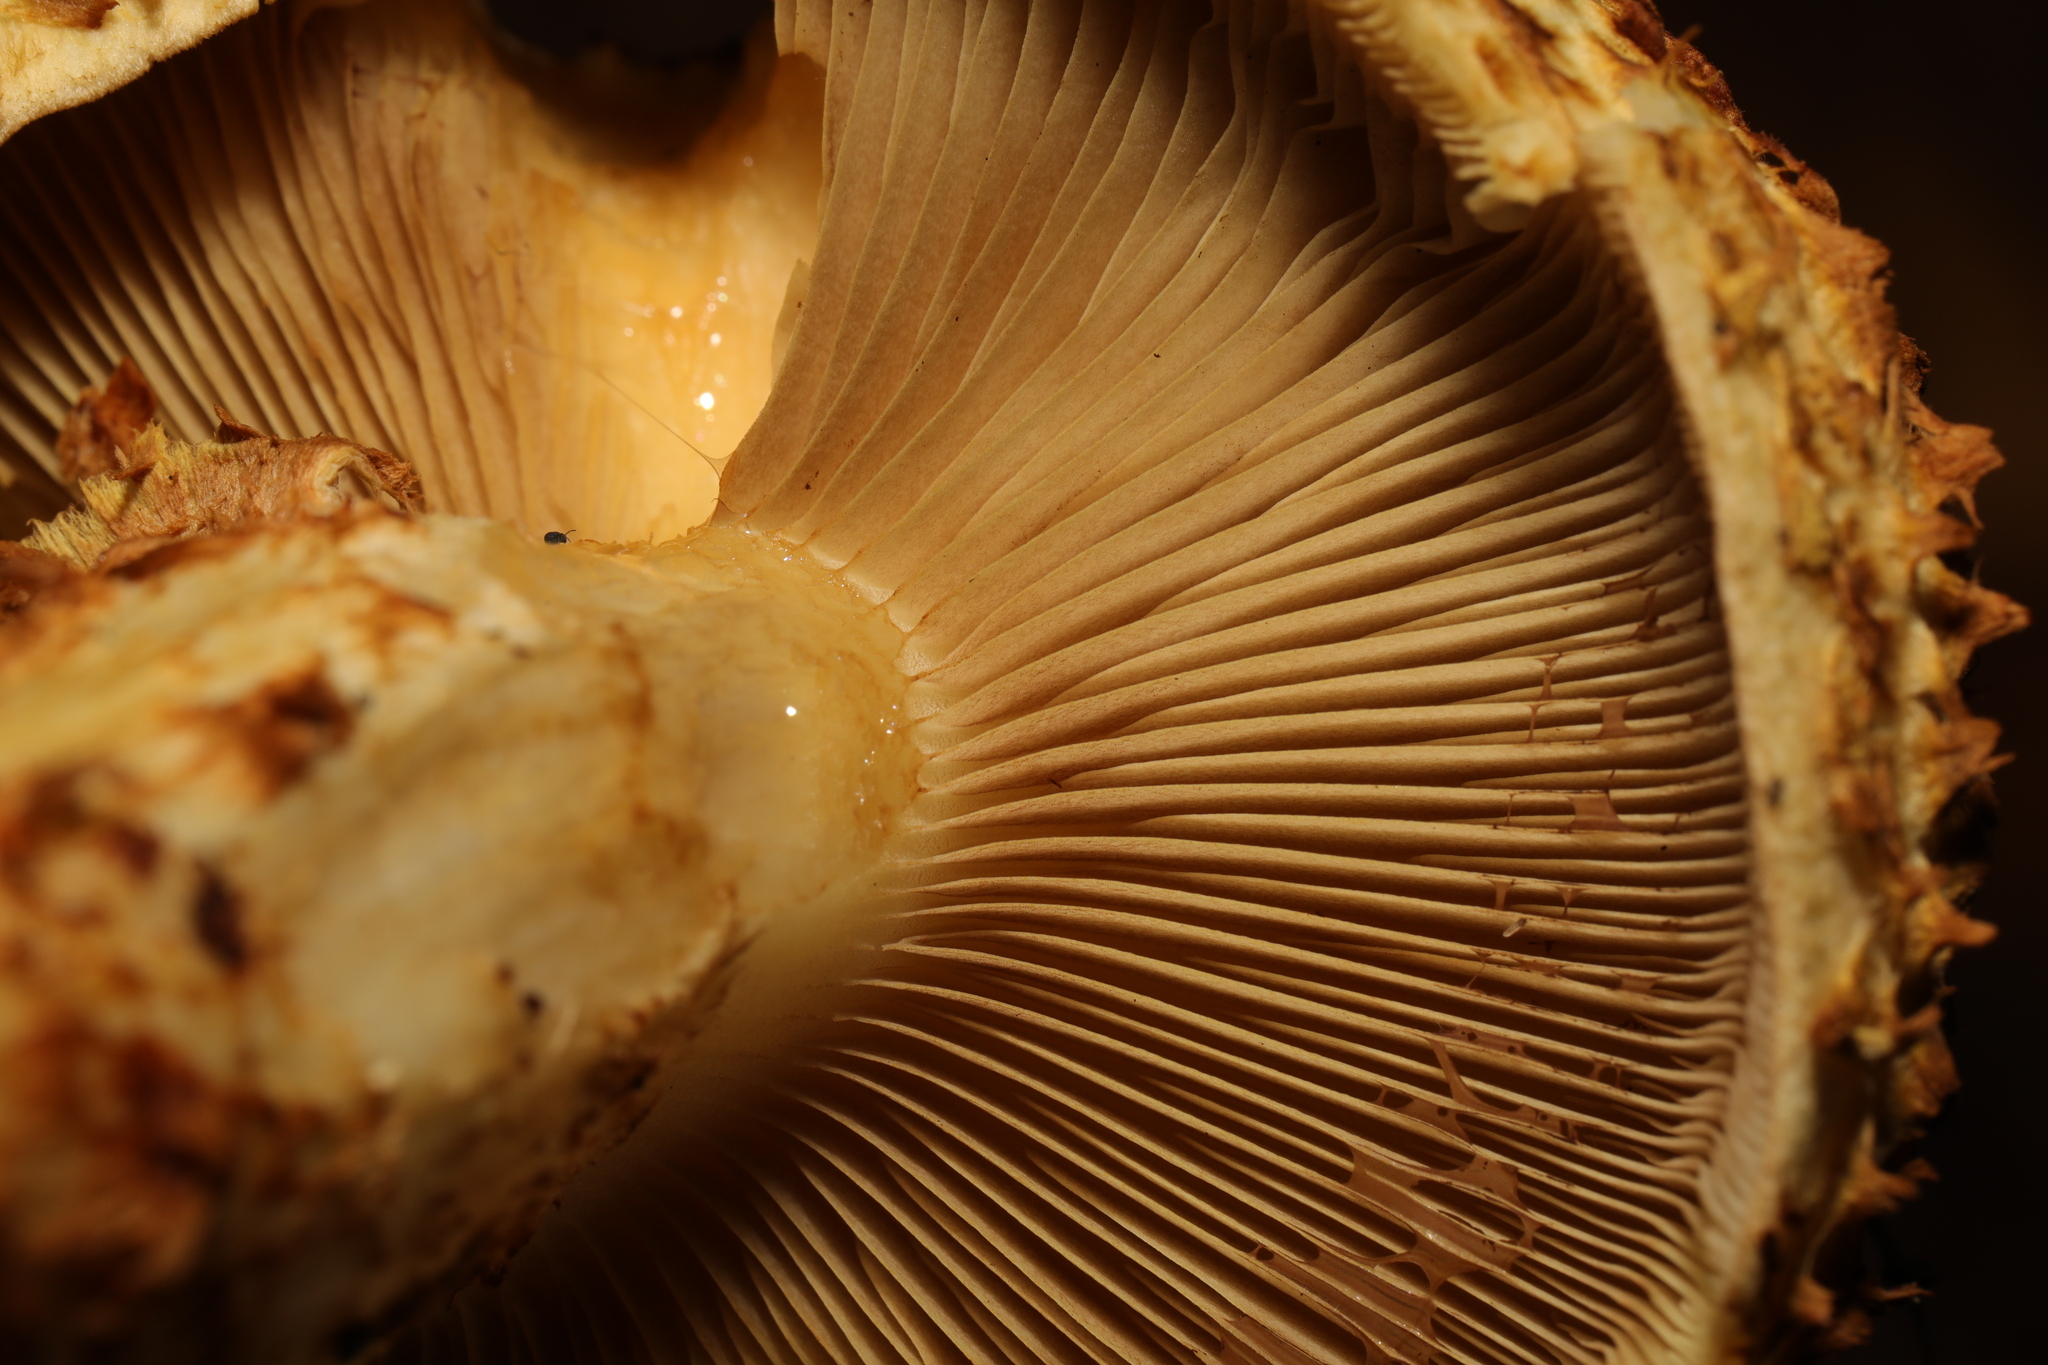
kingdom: Fungi
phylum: Basidiomycota
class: Agaricomycetes
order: Agaricales
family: Strophariaceae
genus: Pholiota
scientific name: Pholiota squarrosa
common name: Shaggy pholiota
